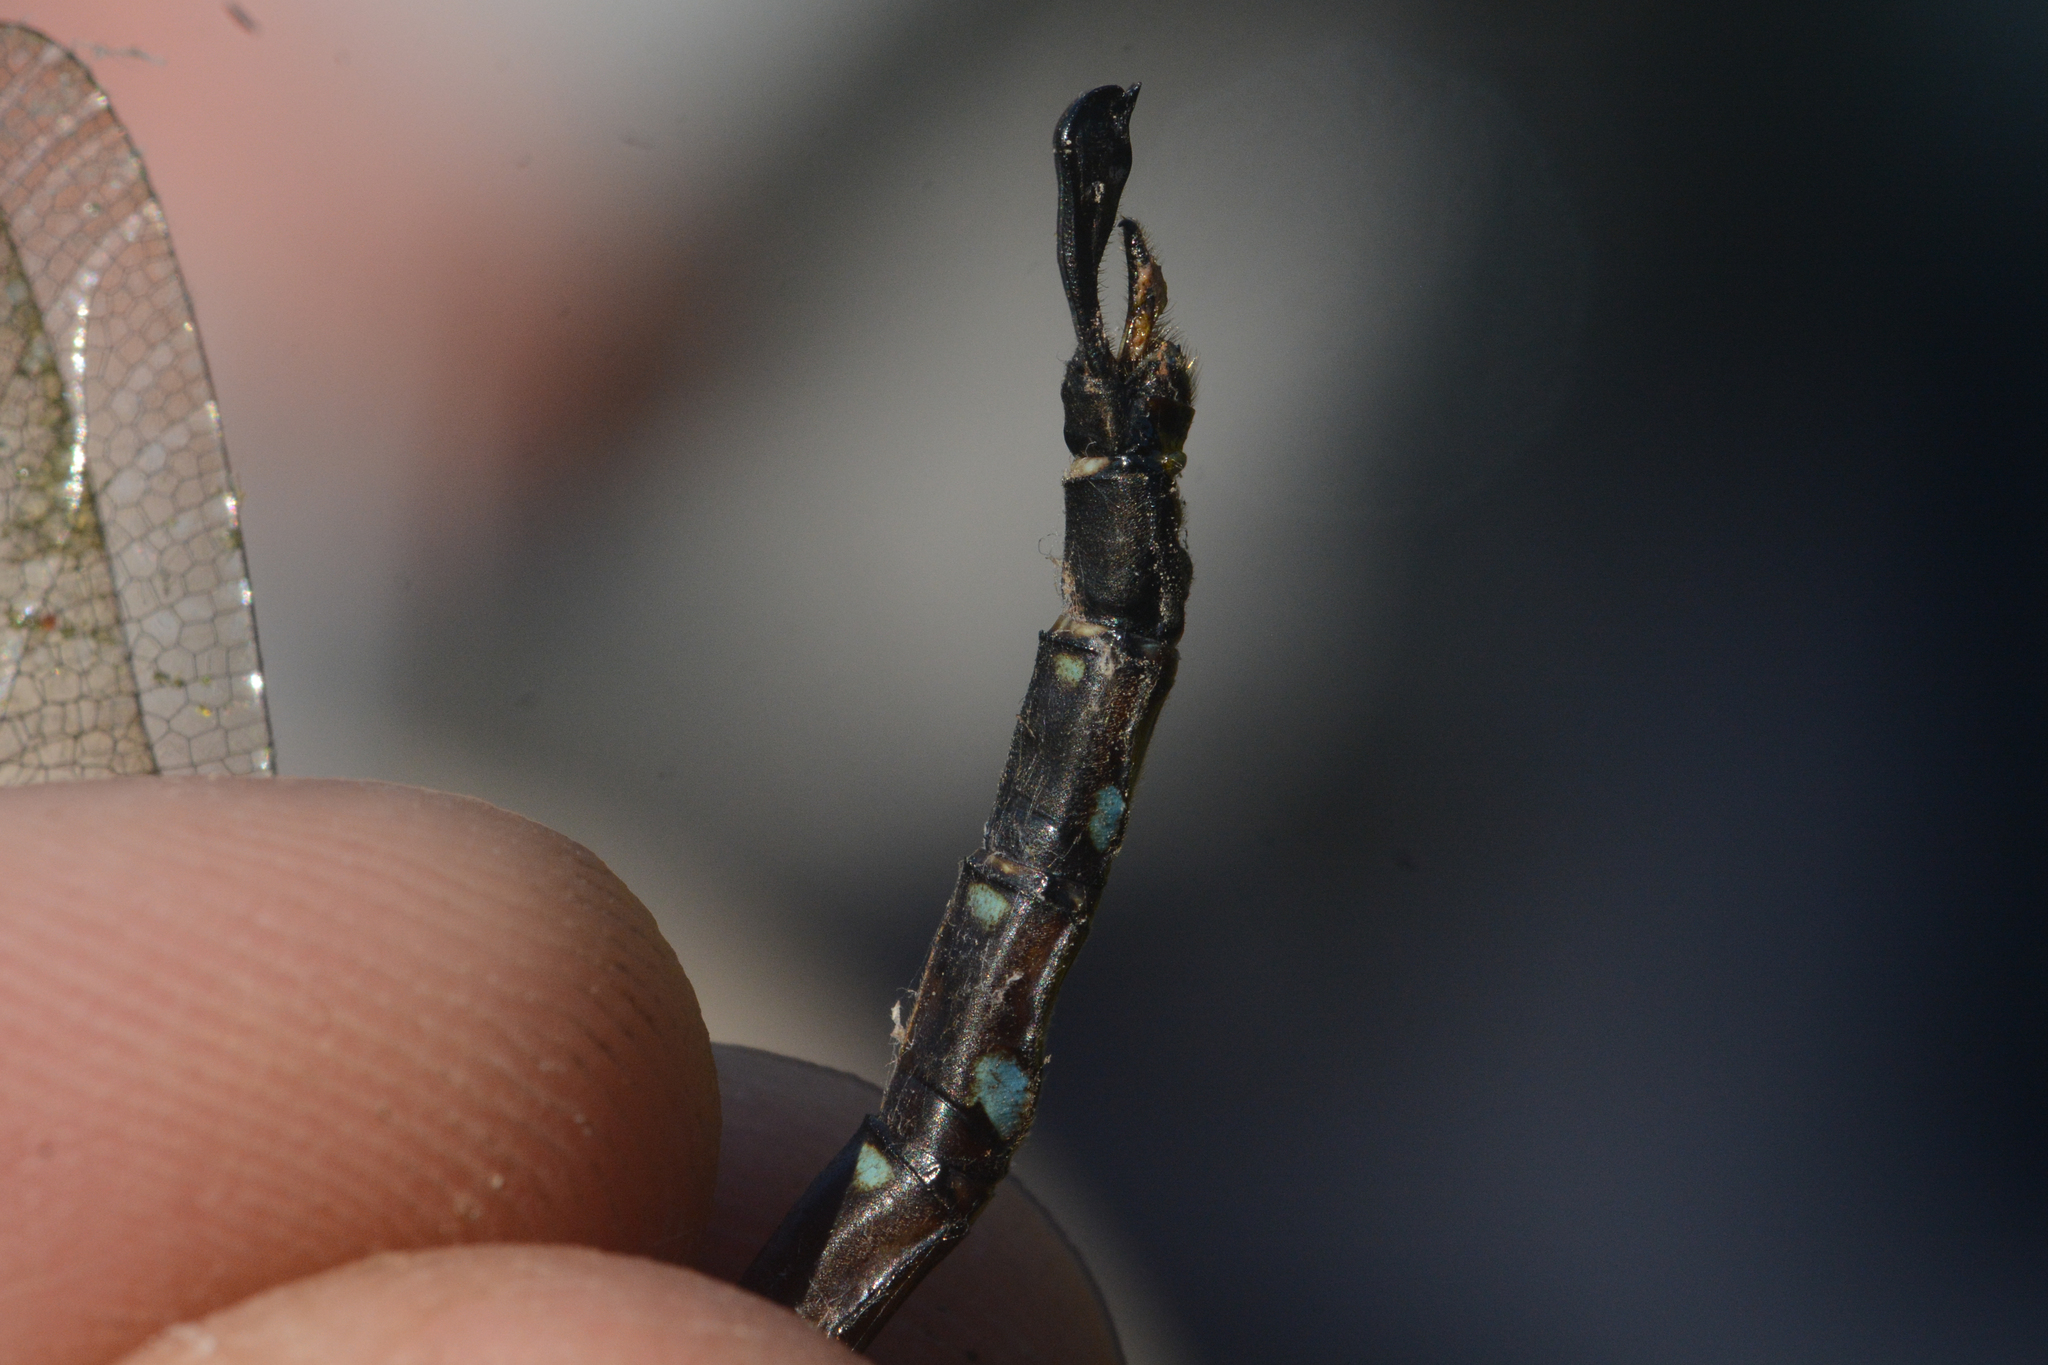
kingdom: Animalia
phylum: Arthropoda
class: Insecta
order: Odonata
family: Aeshnidae
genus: Aeshna
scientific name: Aeshna umbrosa
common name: Shadow darner
